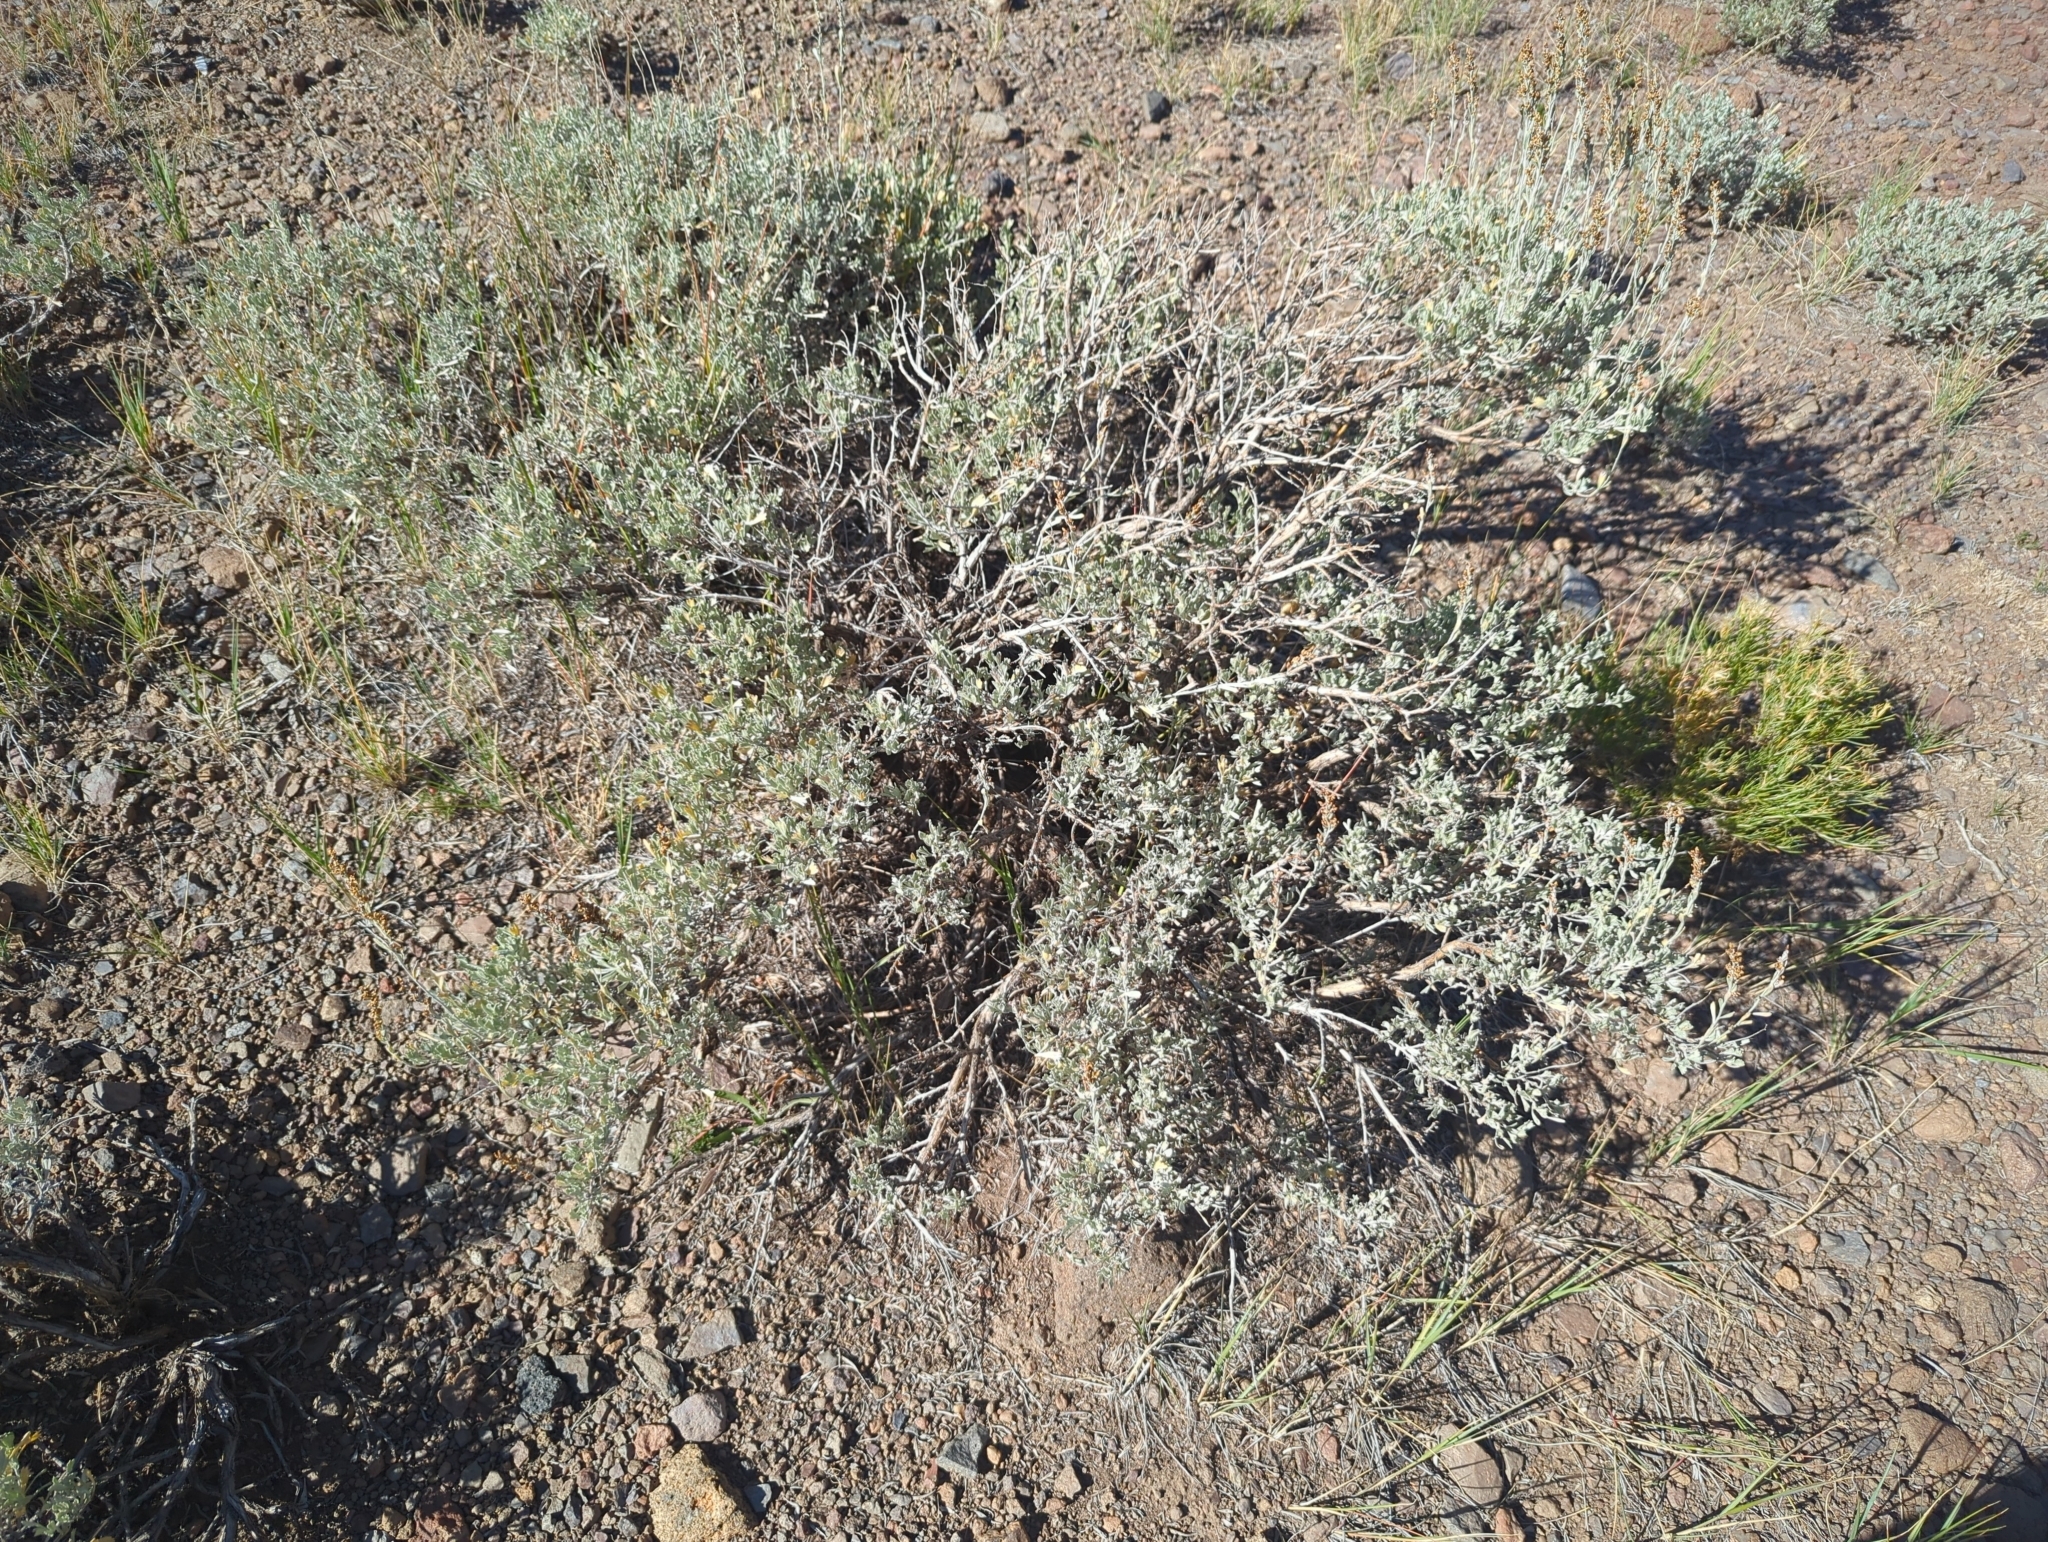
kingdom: Plantae
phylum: Tracheophyta
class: Magnoliopsida
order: Asterales
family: Asteraceae
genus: Artemisia
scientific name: Artemisia tridentata
